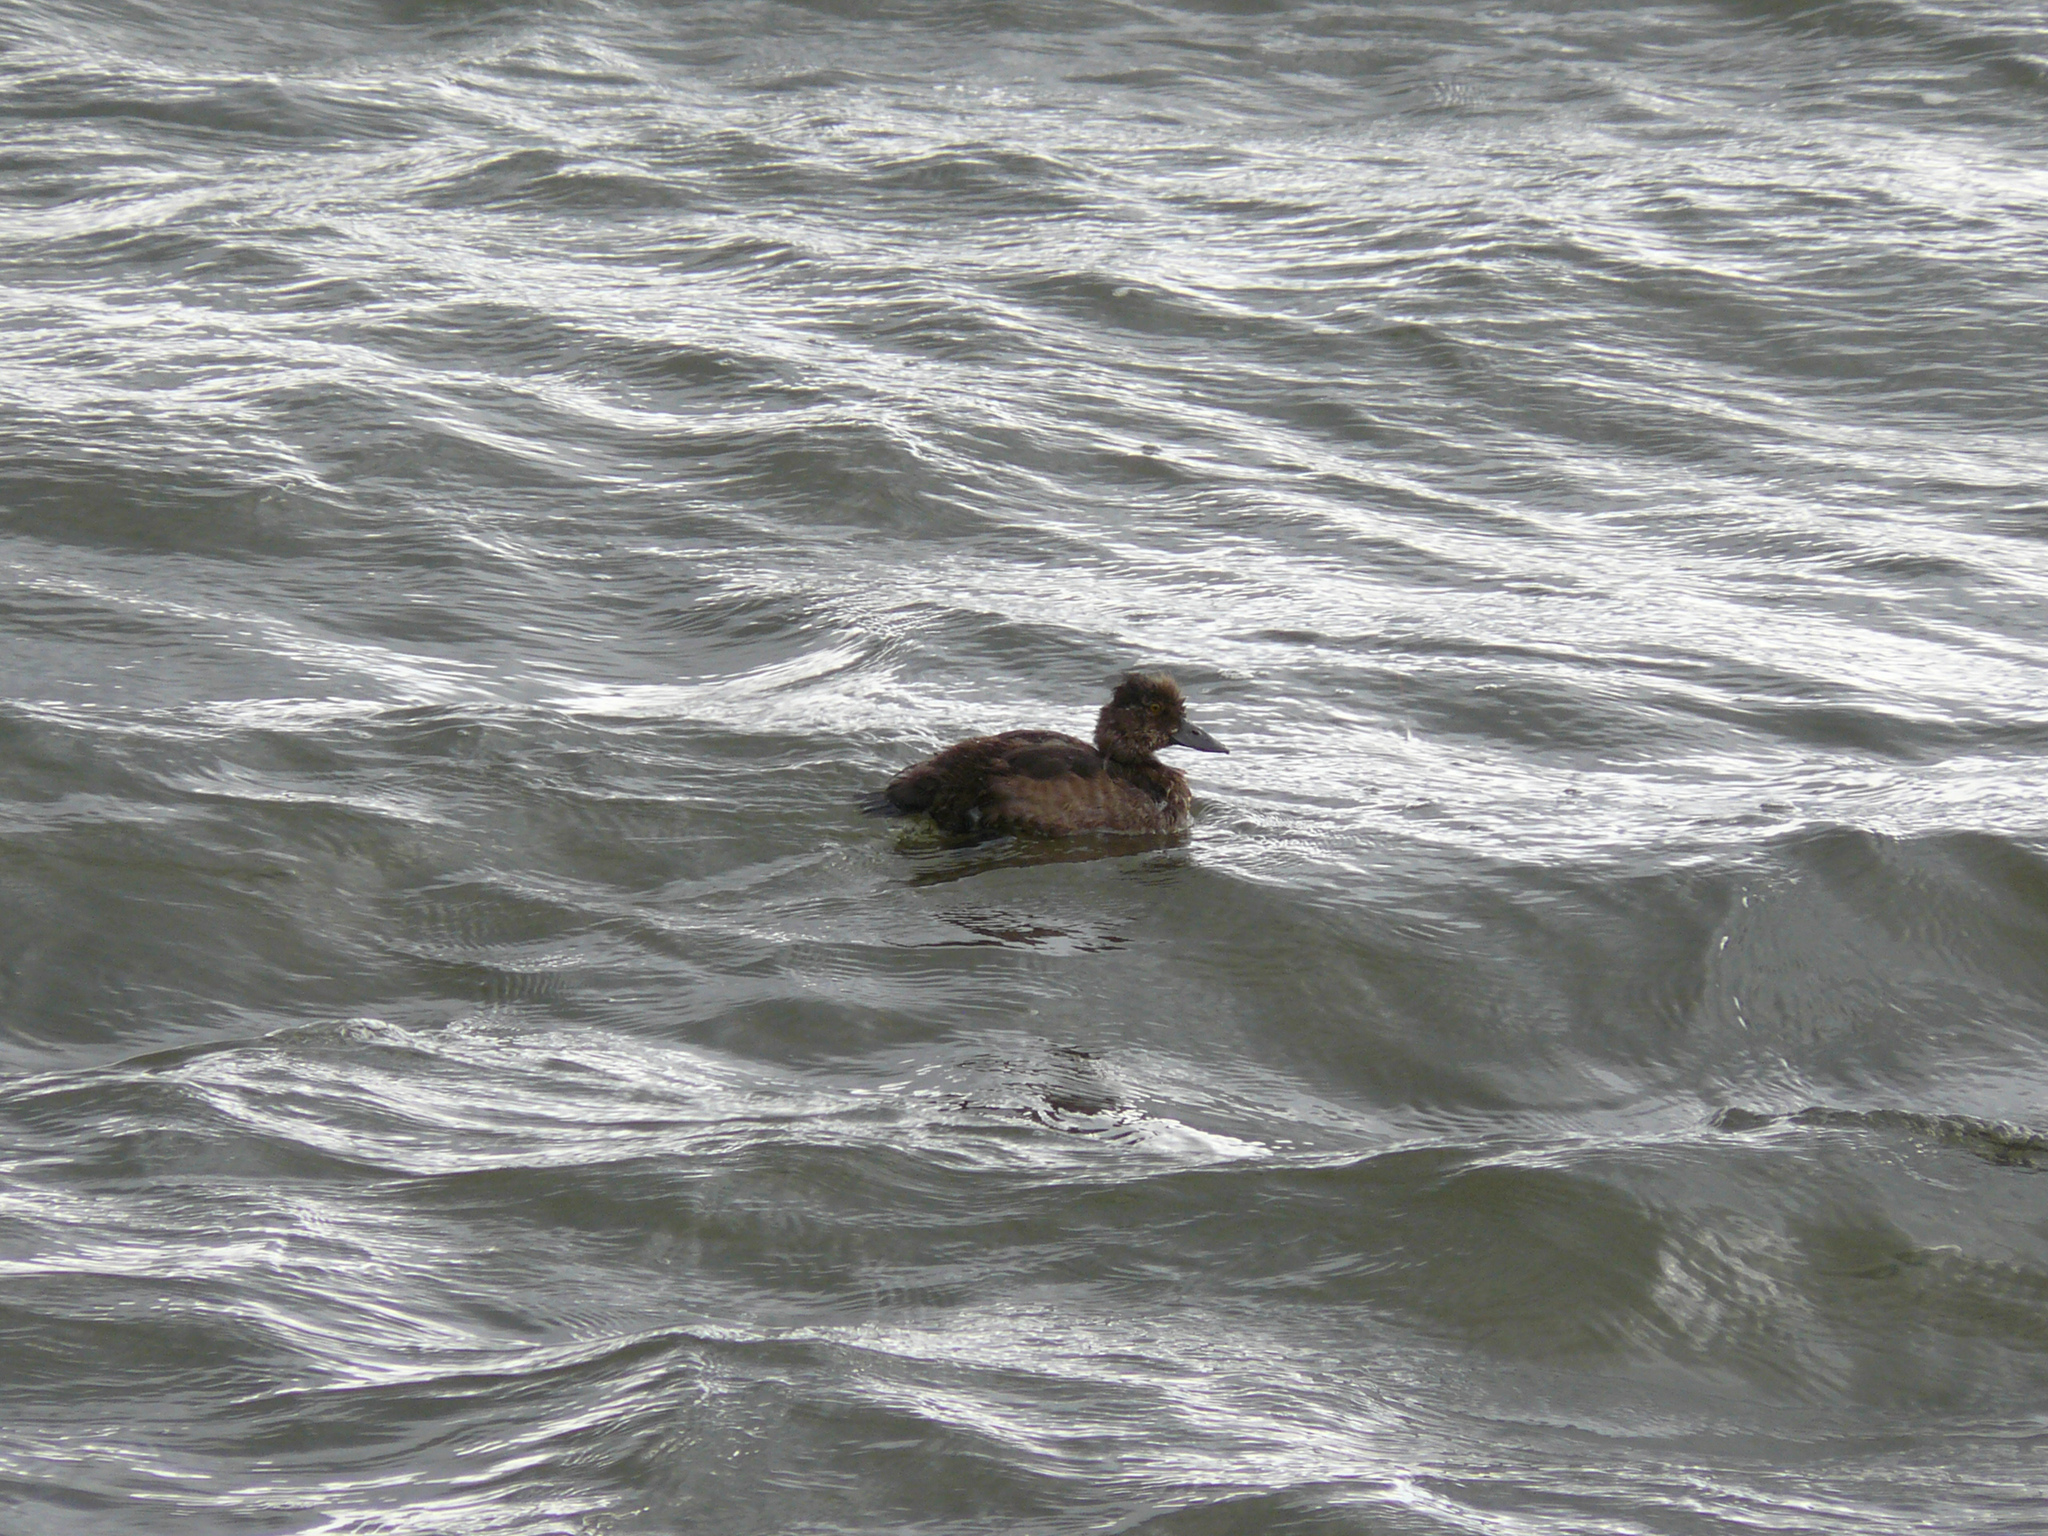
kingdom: Animalia
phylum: Chordata
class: Aves
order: Anseriformes
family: Anatidae
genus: Mareca
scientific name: Mareca penelope
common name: Eurasian wigeon
